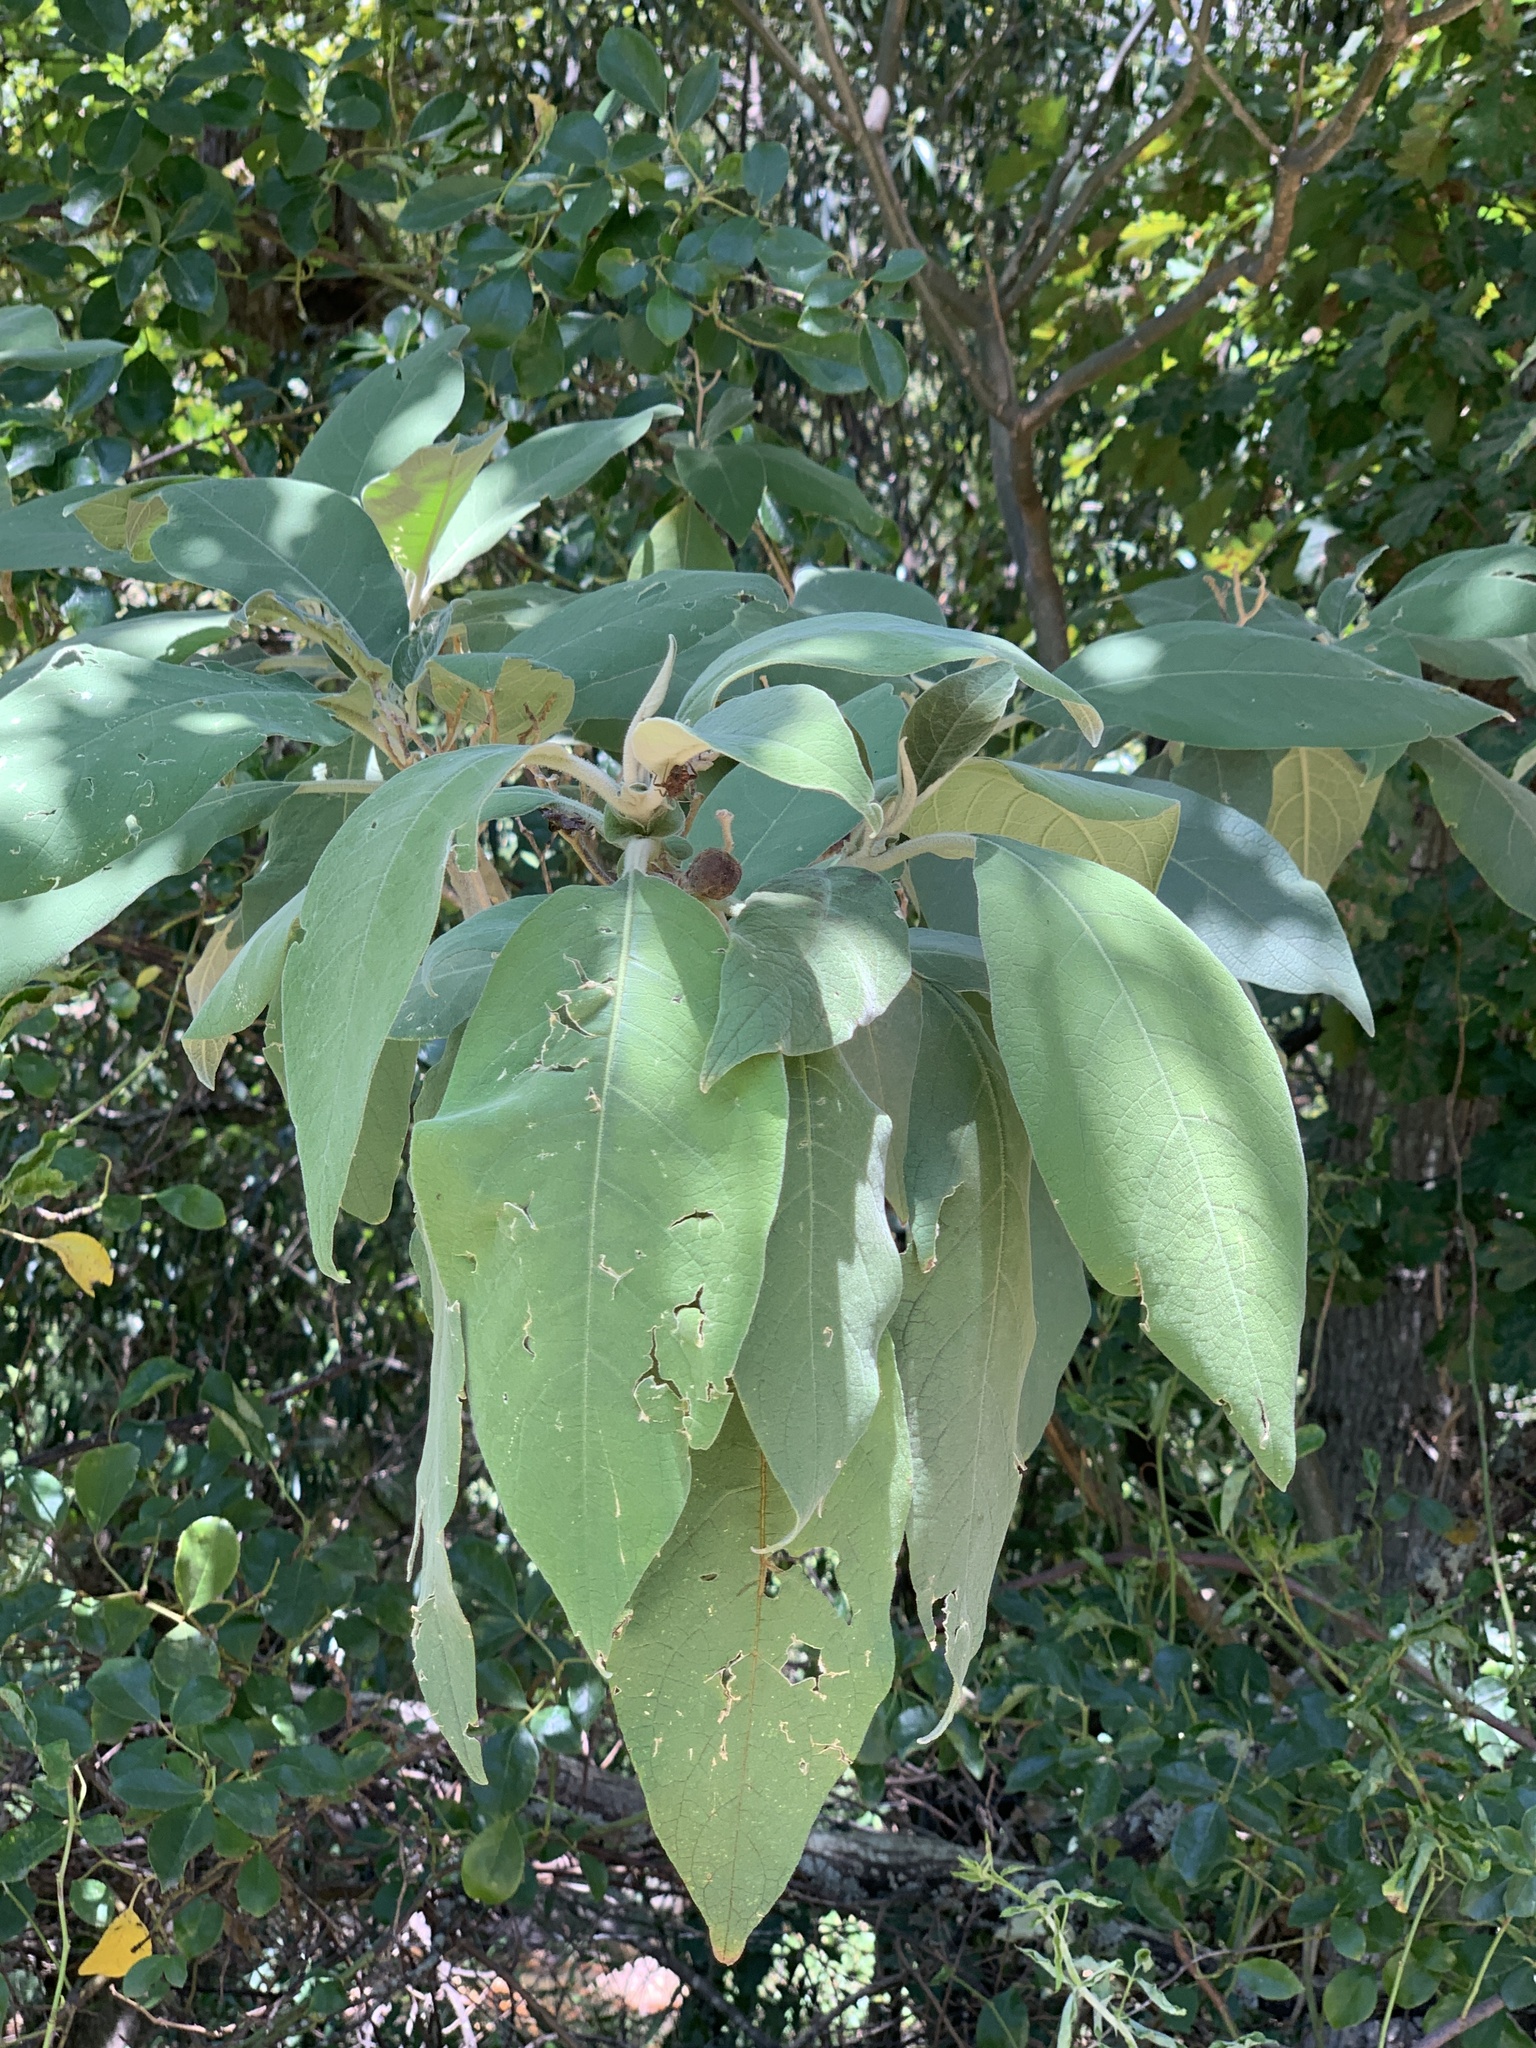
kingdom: Plantae
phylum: Tracheophyta
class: Magnoliopsida
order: Solanales
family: Solanaceae
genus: Solanum
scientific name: Solanum mauritianum
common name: Earleaf nightshade
